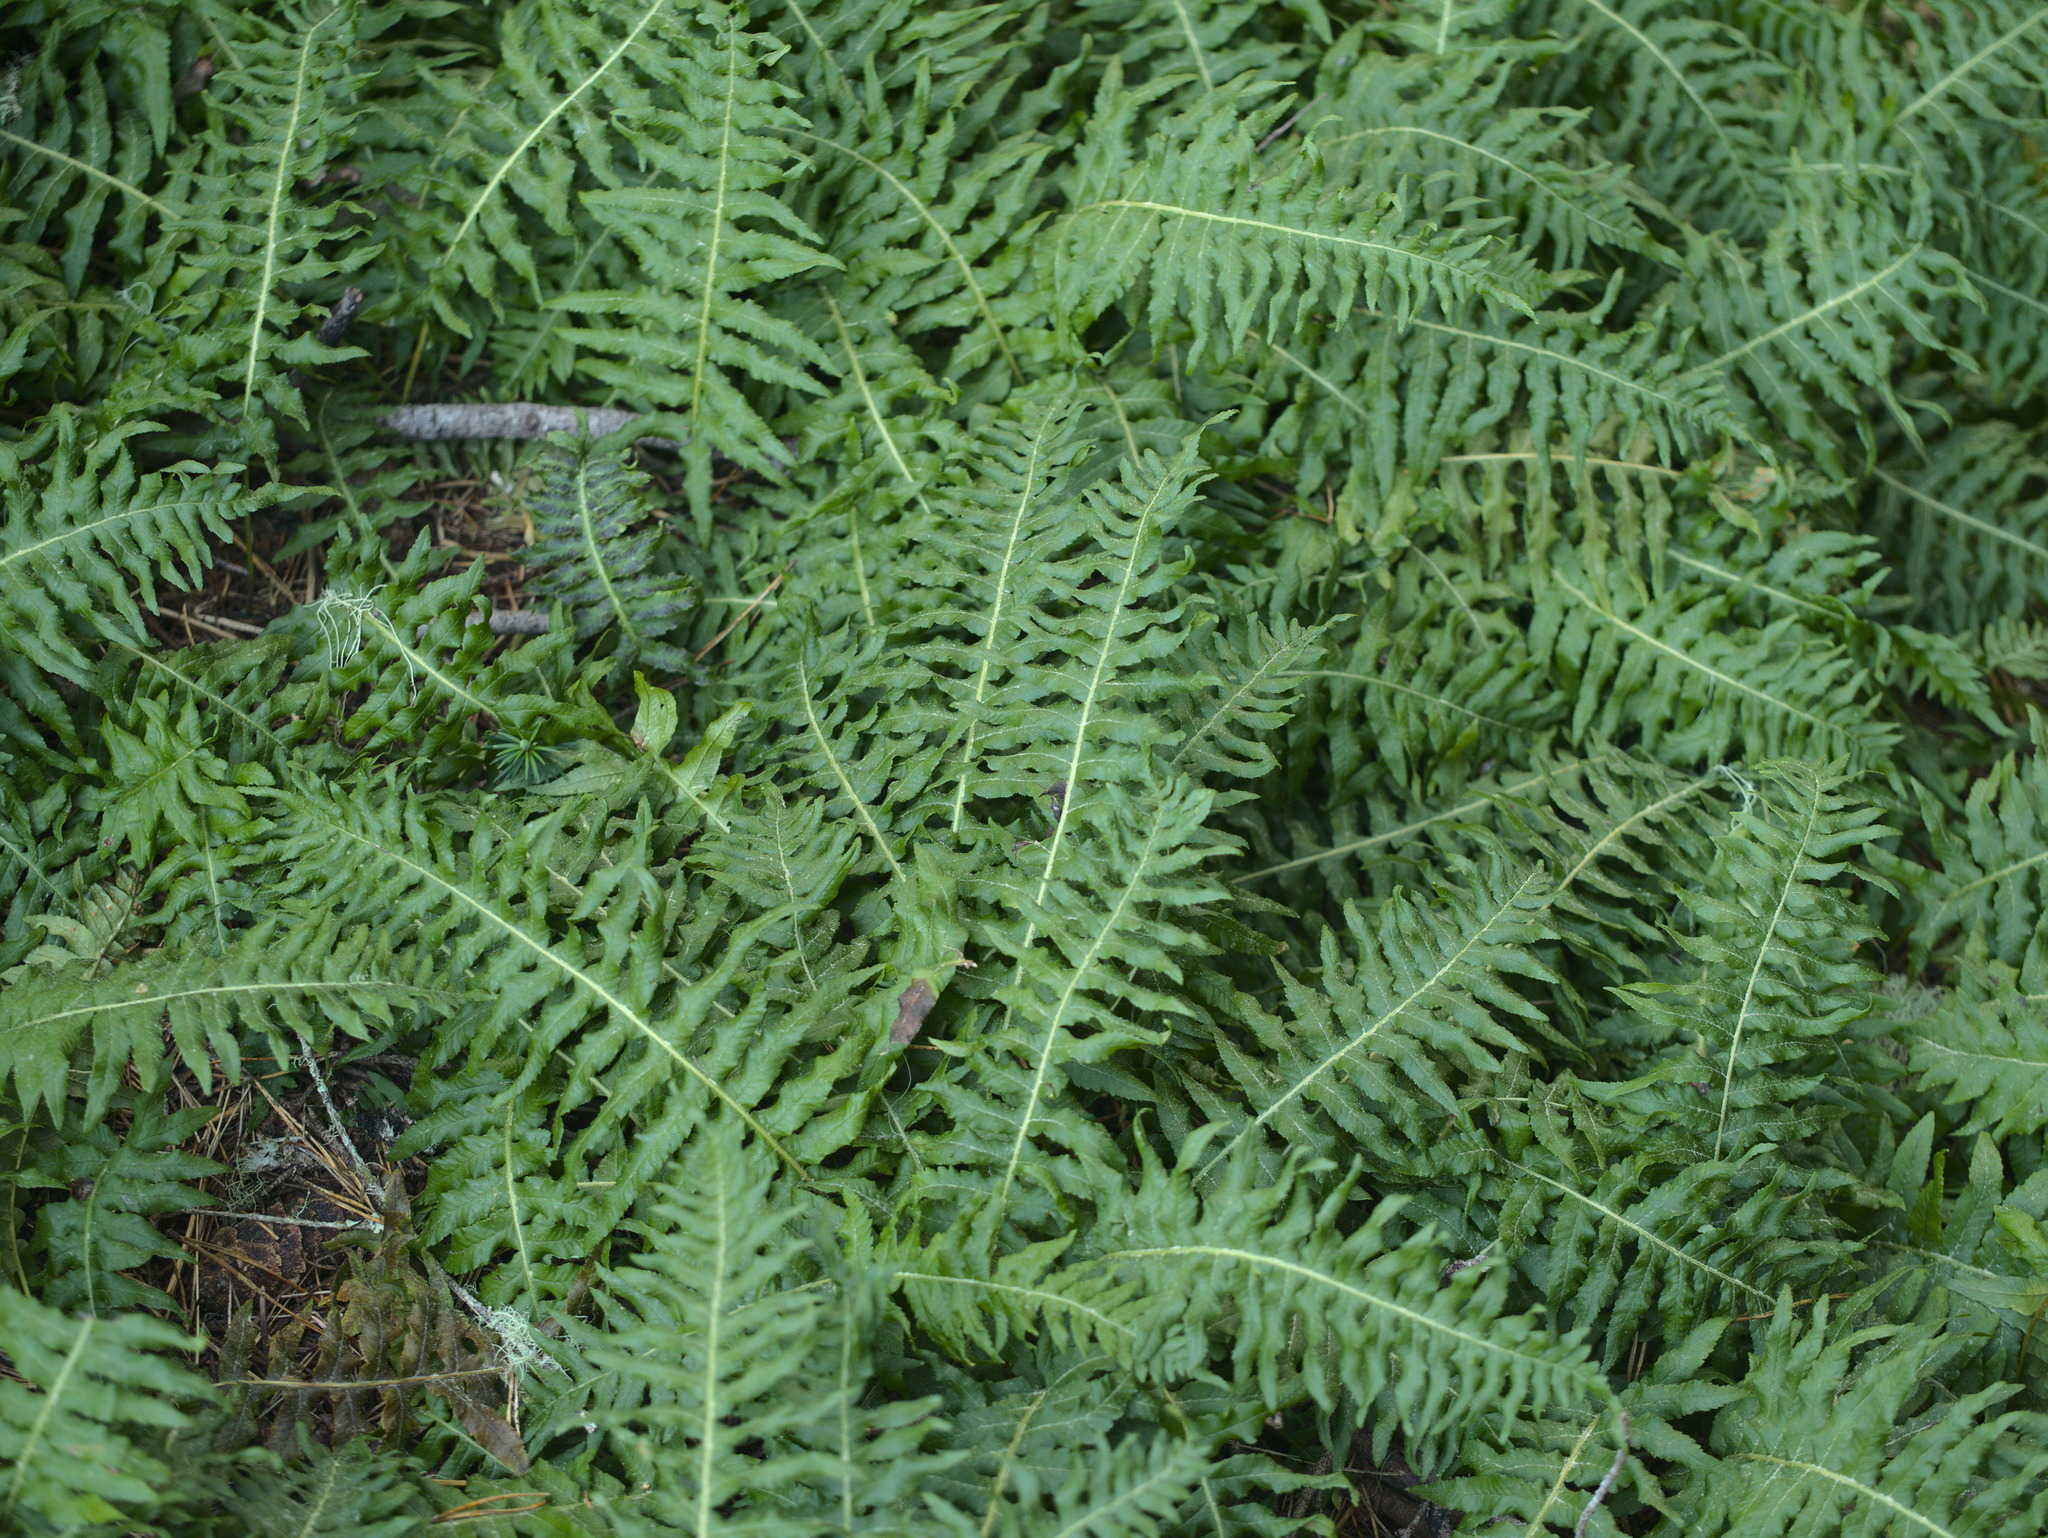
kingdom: Plantae
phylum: Tracheophyta
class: Polypodiopsida
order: Polypodiales
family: Polypodiaceae
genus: Polypodium
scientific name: Polypodium glycyrrhiza
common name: Licorice fern
